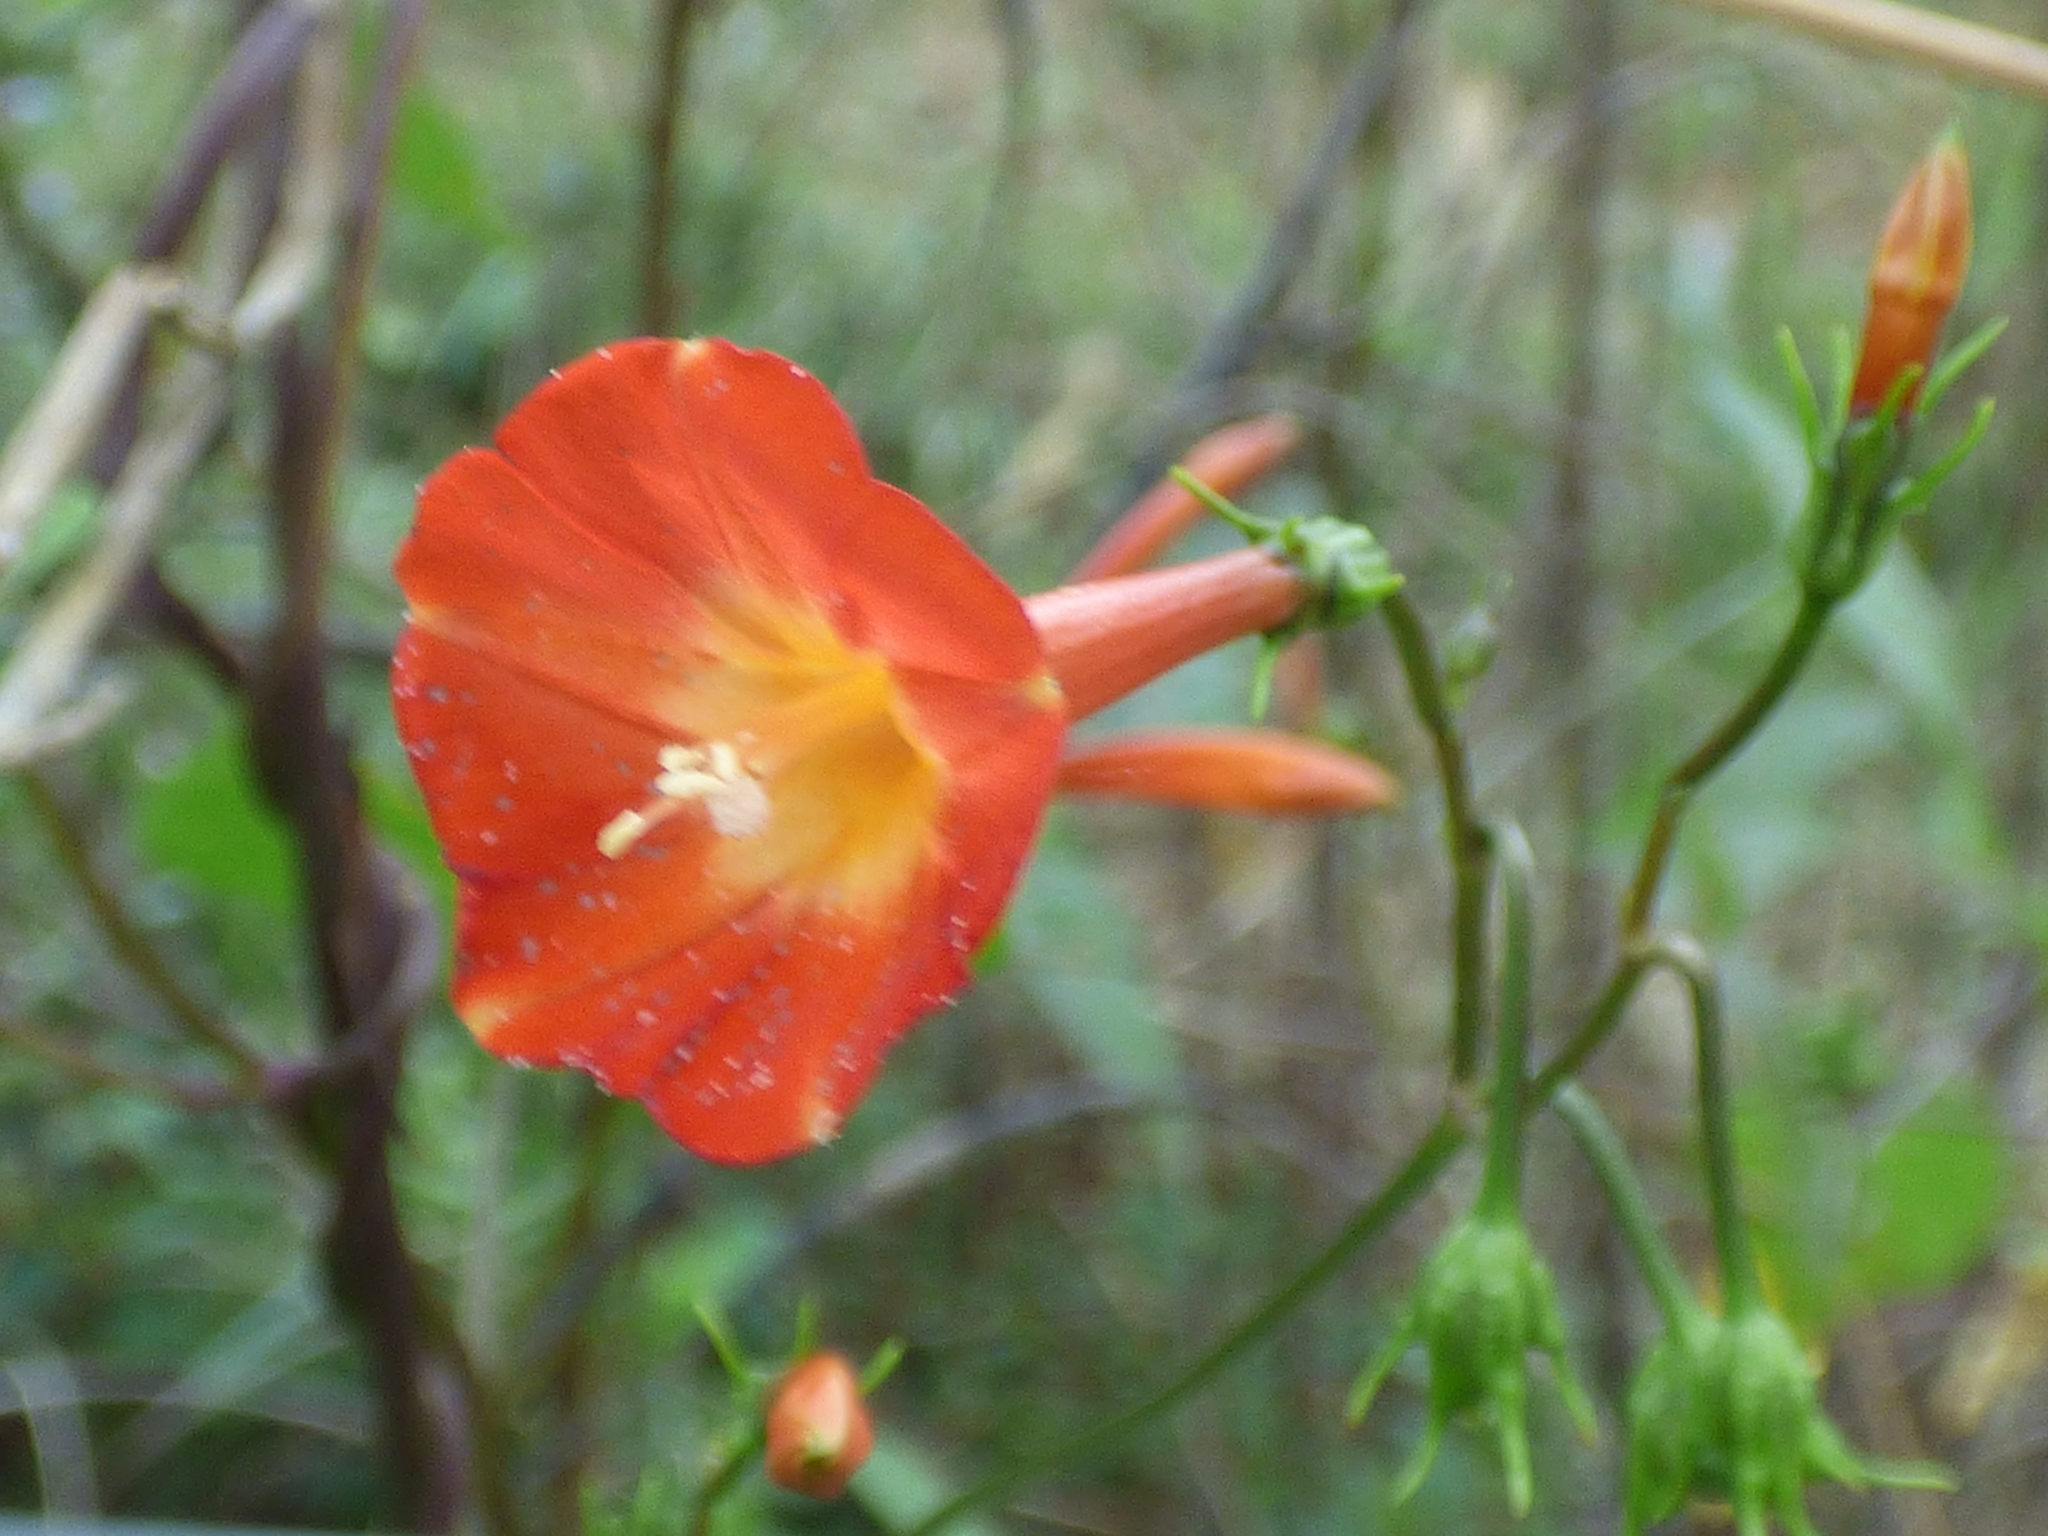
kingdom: Plantae
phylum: Tracheophyta
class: Magnoliopsida
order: Solanales
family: Convolvulaceae
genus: Ipomoea
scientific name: Ipomoea coccinea
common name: Red morning-glory
